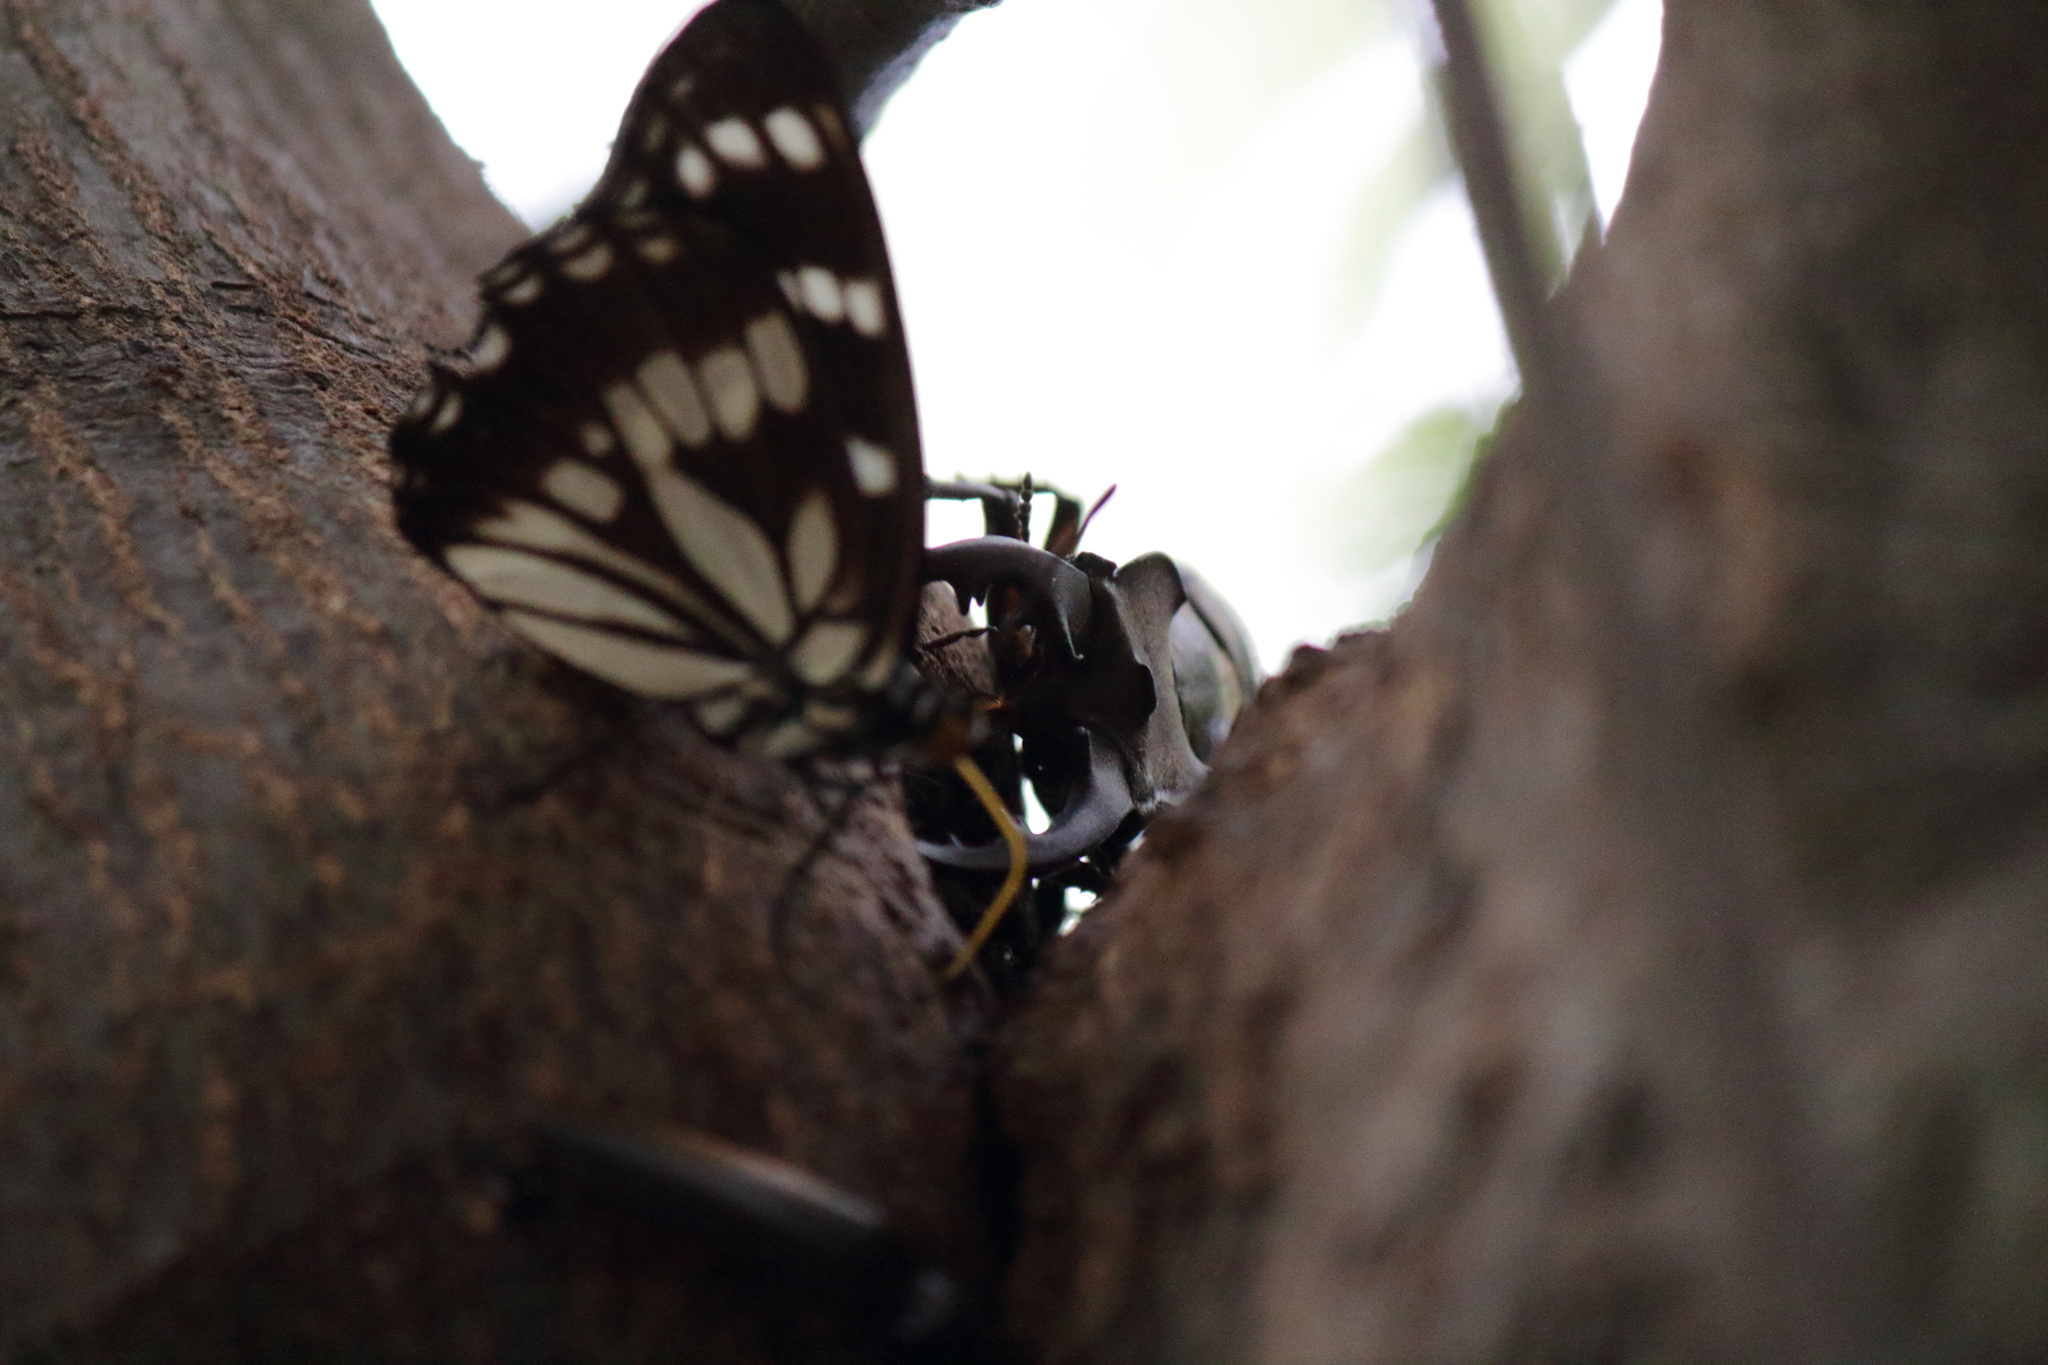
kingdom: Animalia
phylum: Arthropoda
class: Insecta
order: Coleoptera
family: Lucanidae
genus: Lucanus
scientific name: Lucanus maculifemoratus
